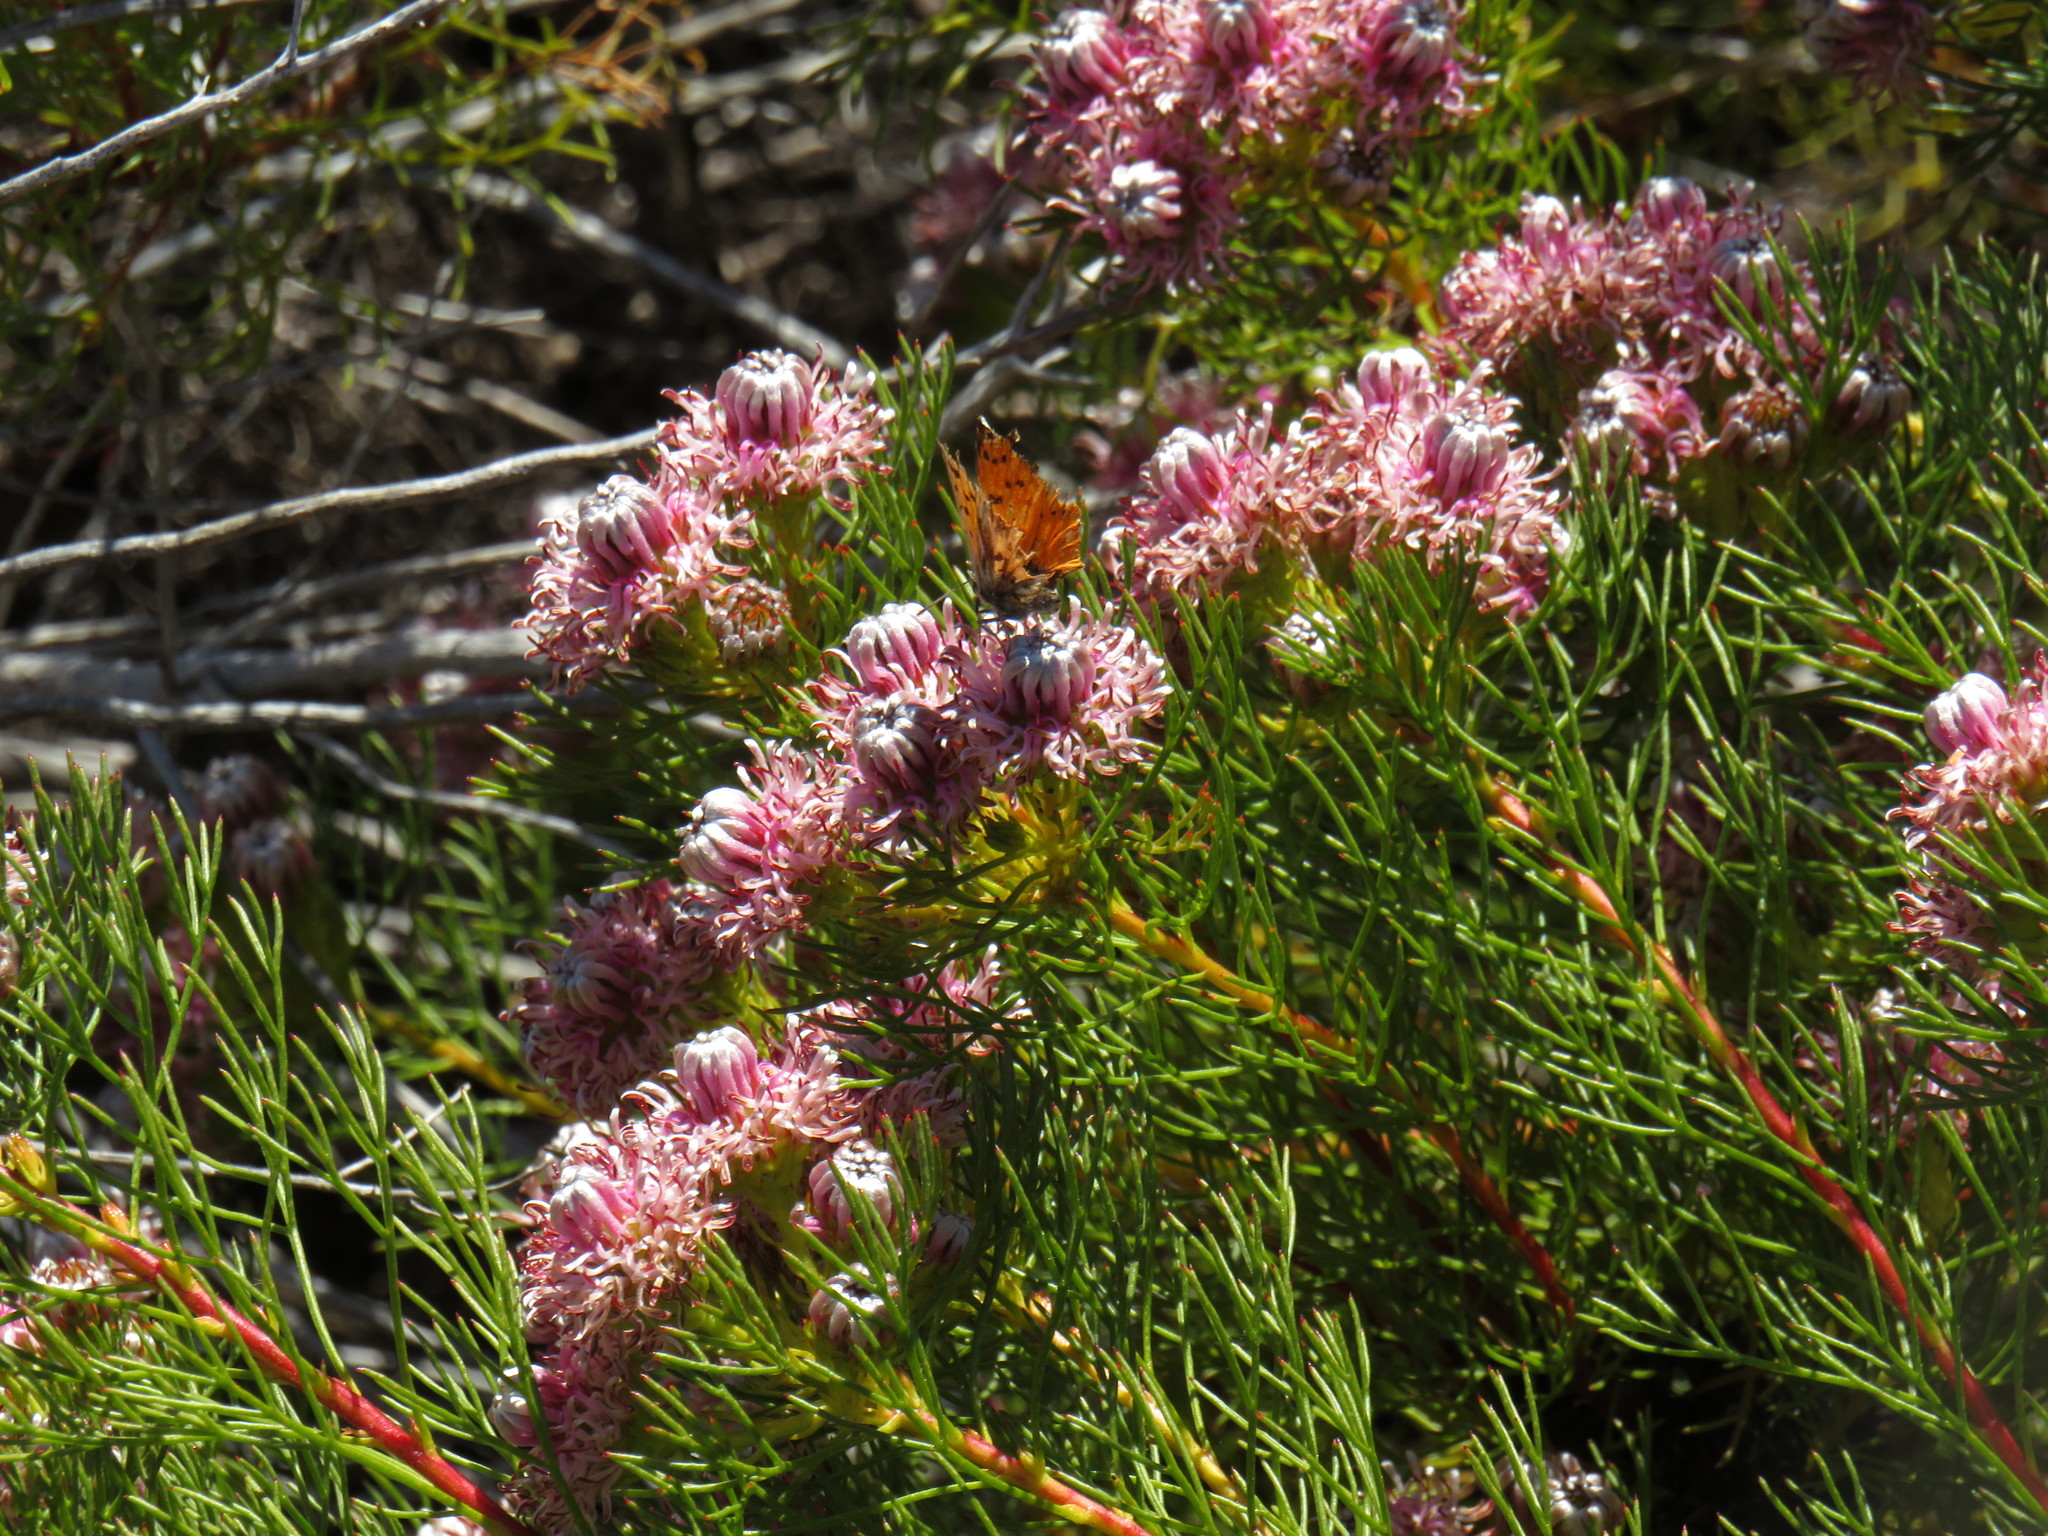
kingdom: Plantae
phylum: Tracheophyta
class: Magnoliopsida
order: Proteales
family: Proteaceae
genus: Serruria
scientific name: Serruria
